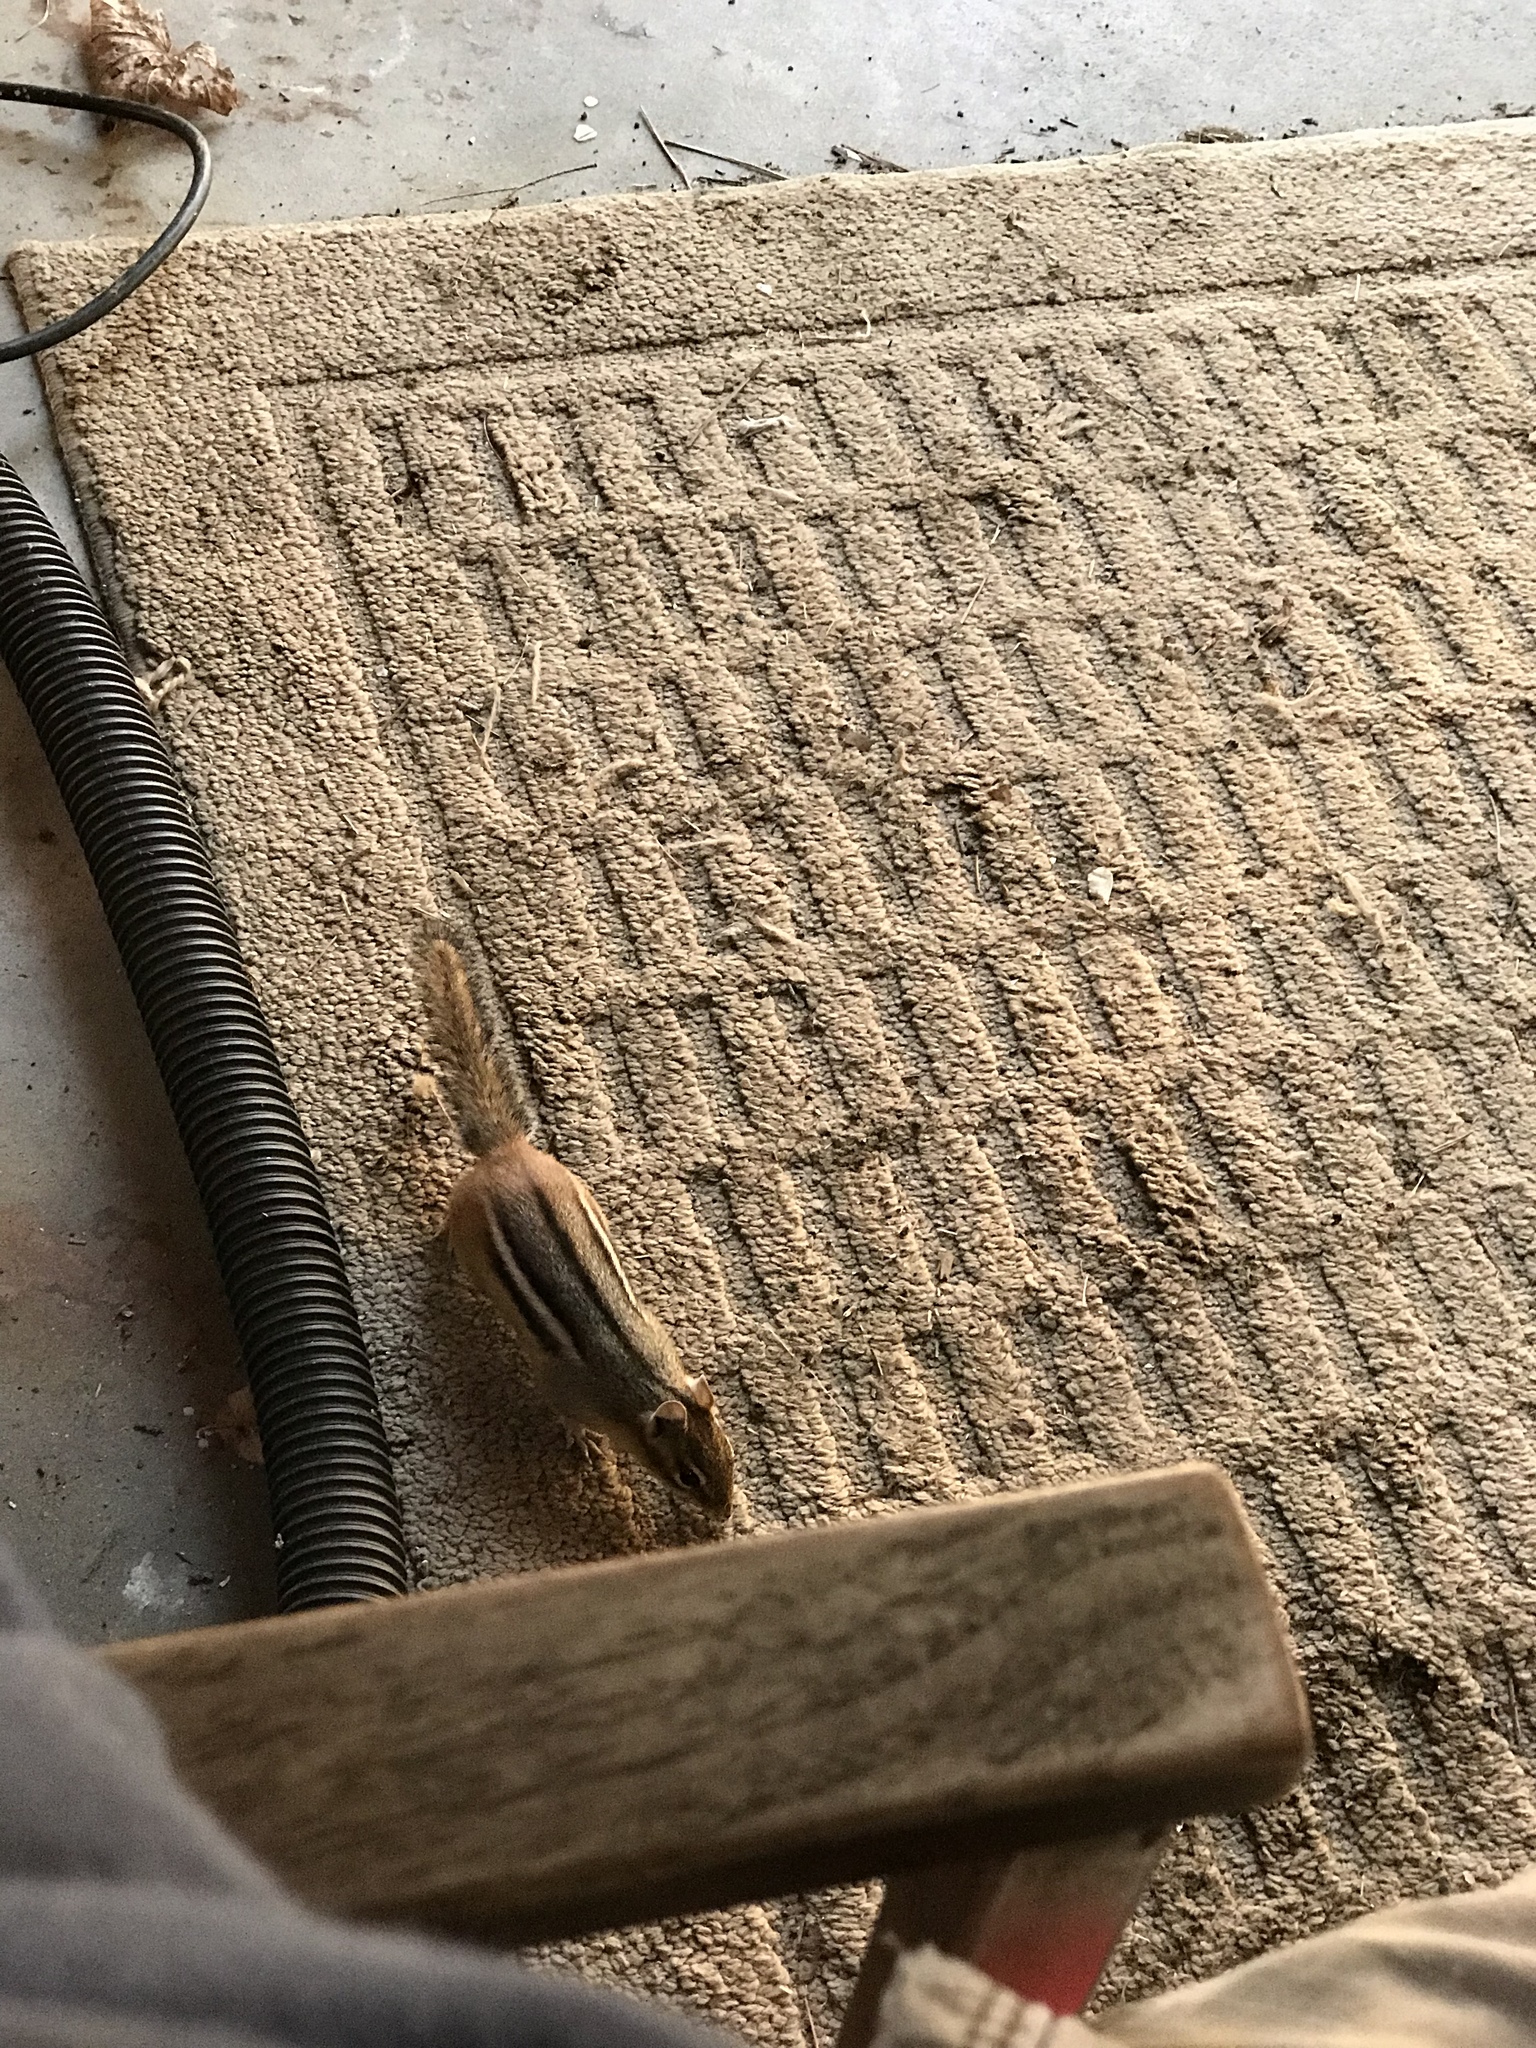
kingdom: Animalia
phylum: Chordata
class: Mammalia
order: Rodentia
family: Sciuridae
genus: Tamias
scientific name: Tamias striatus
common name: Eastern chipmunk
